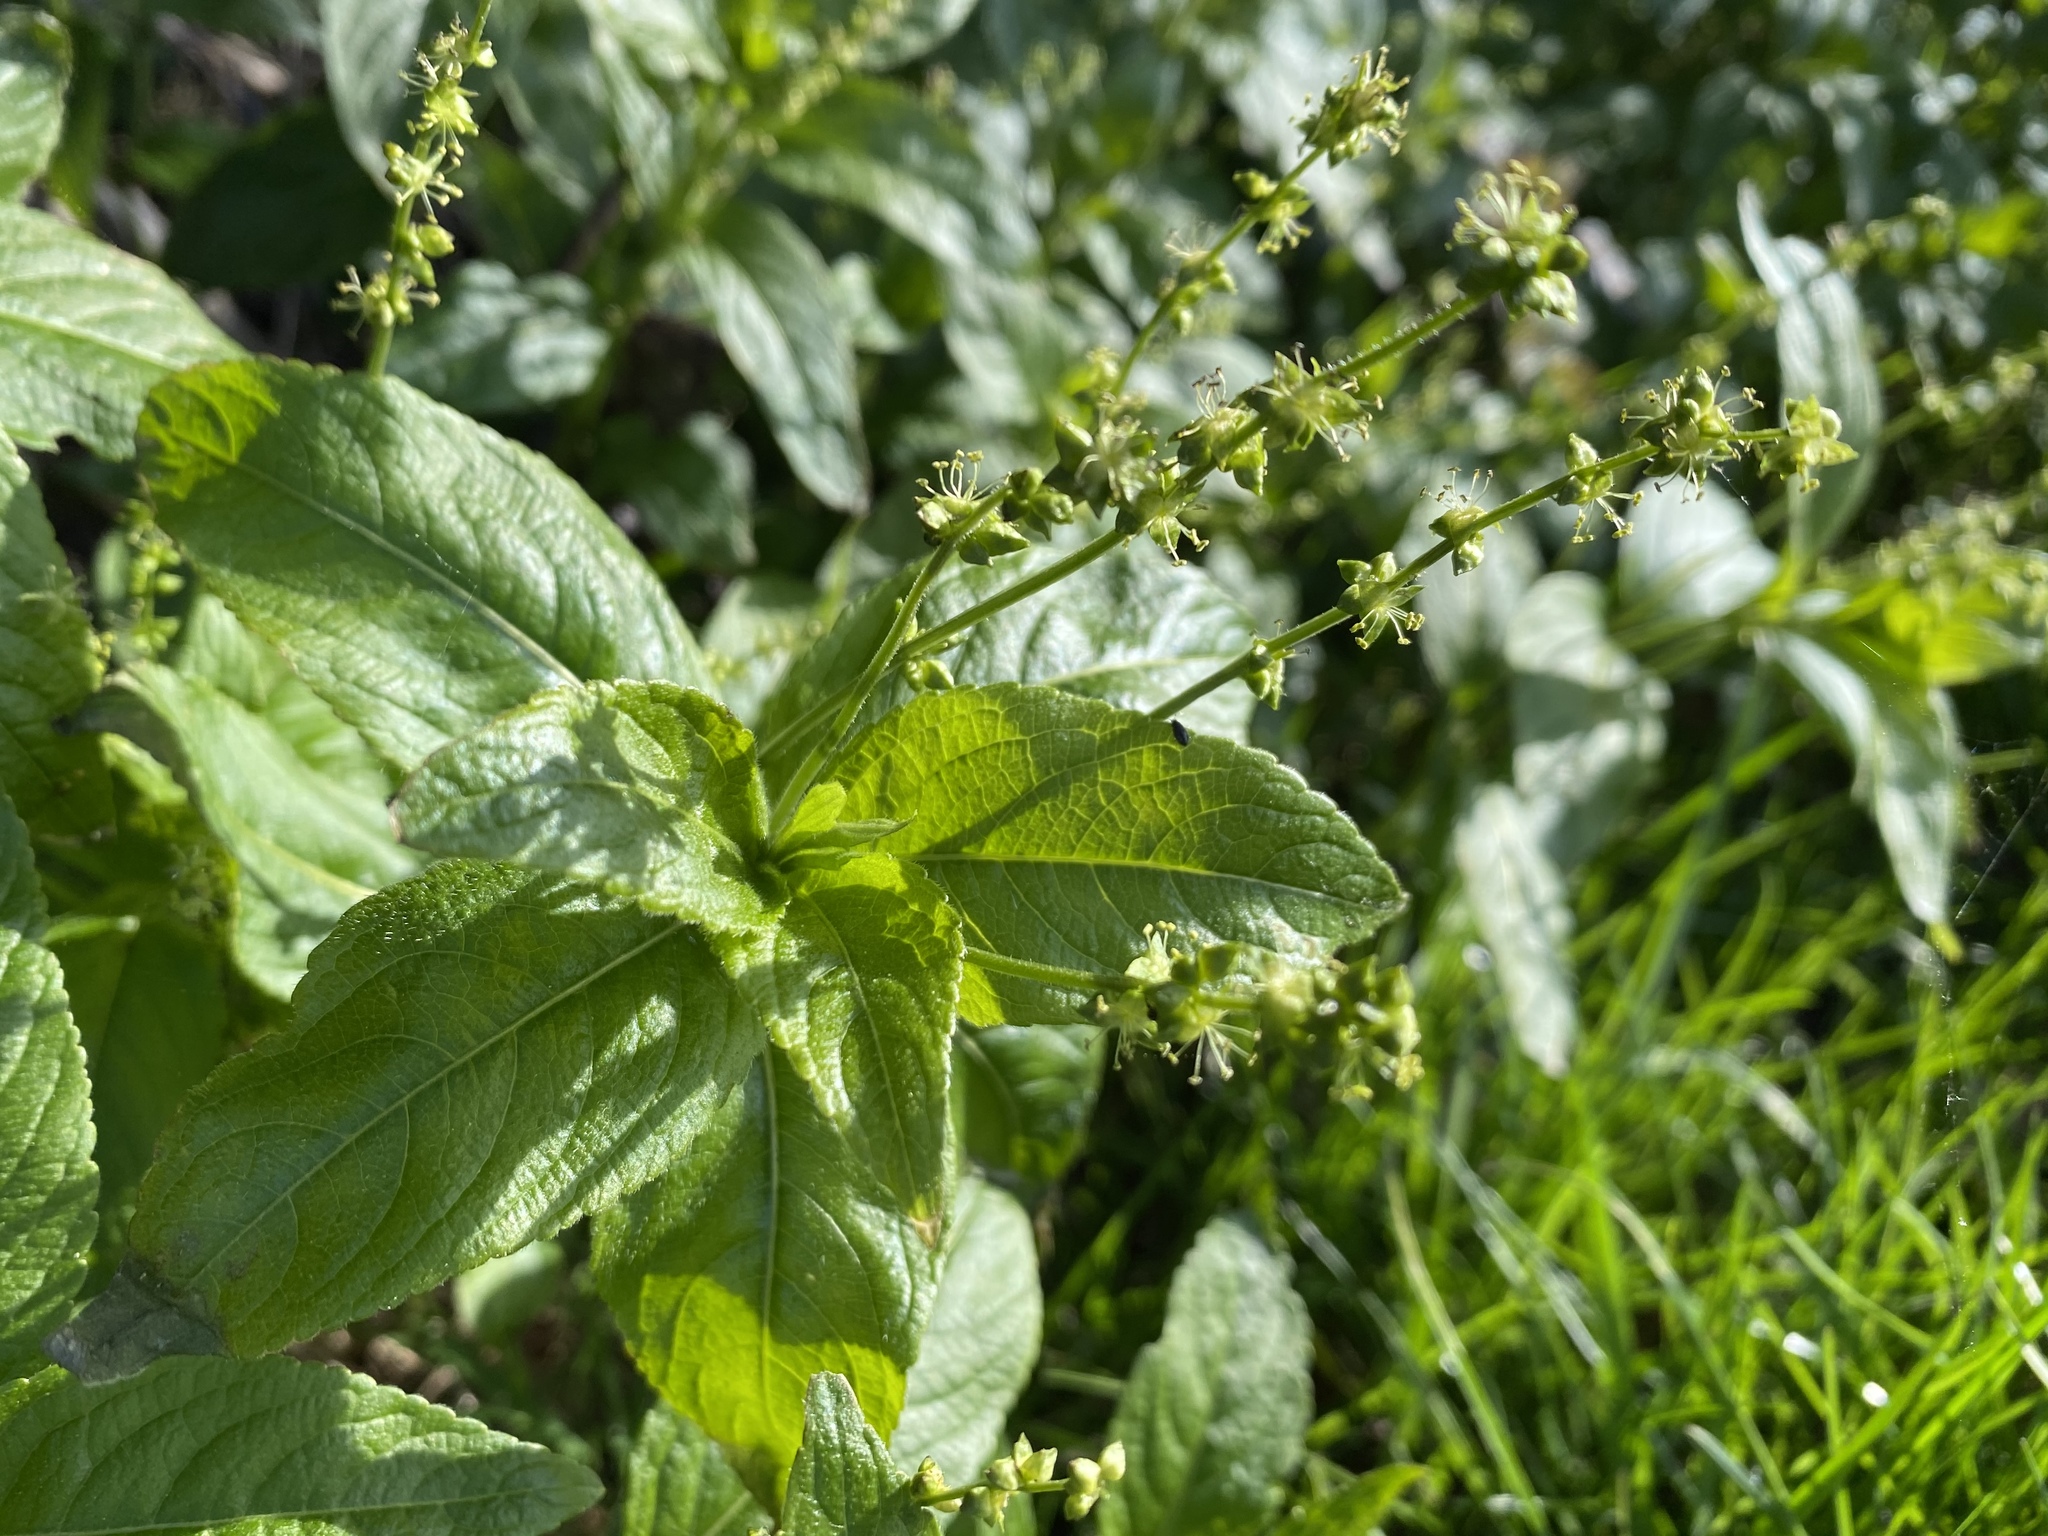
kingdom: Plantae
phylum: Tracheophyta
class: Magnoliopsida
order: Malpighiales
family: Euphorbiaceae
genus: Mercurialis
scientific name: Mercurialis perennis
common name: Dog mercury
